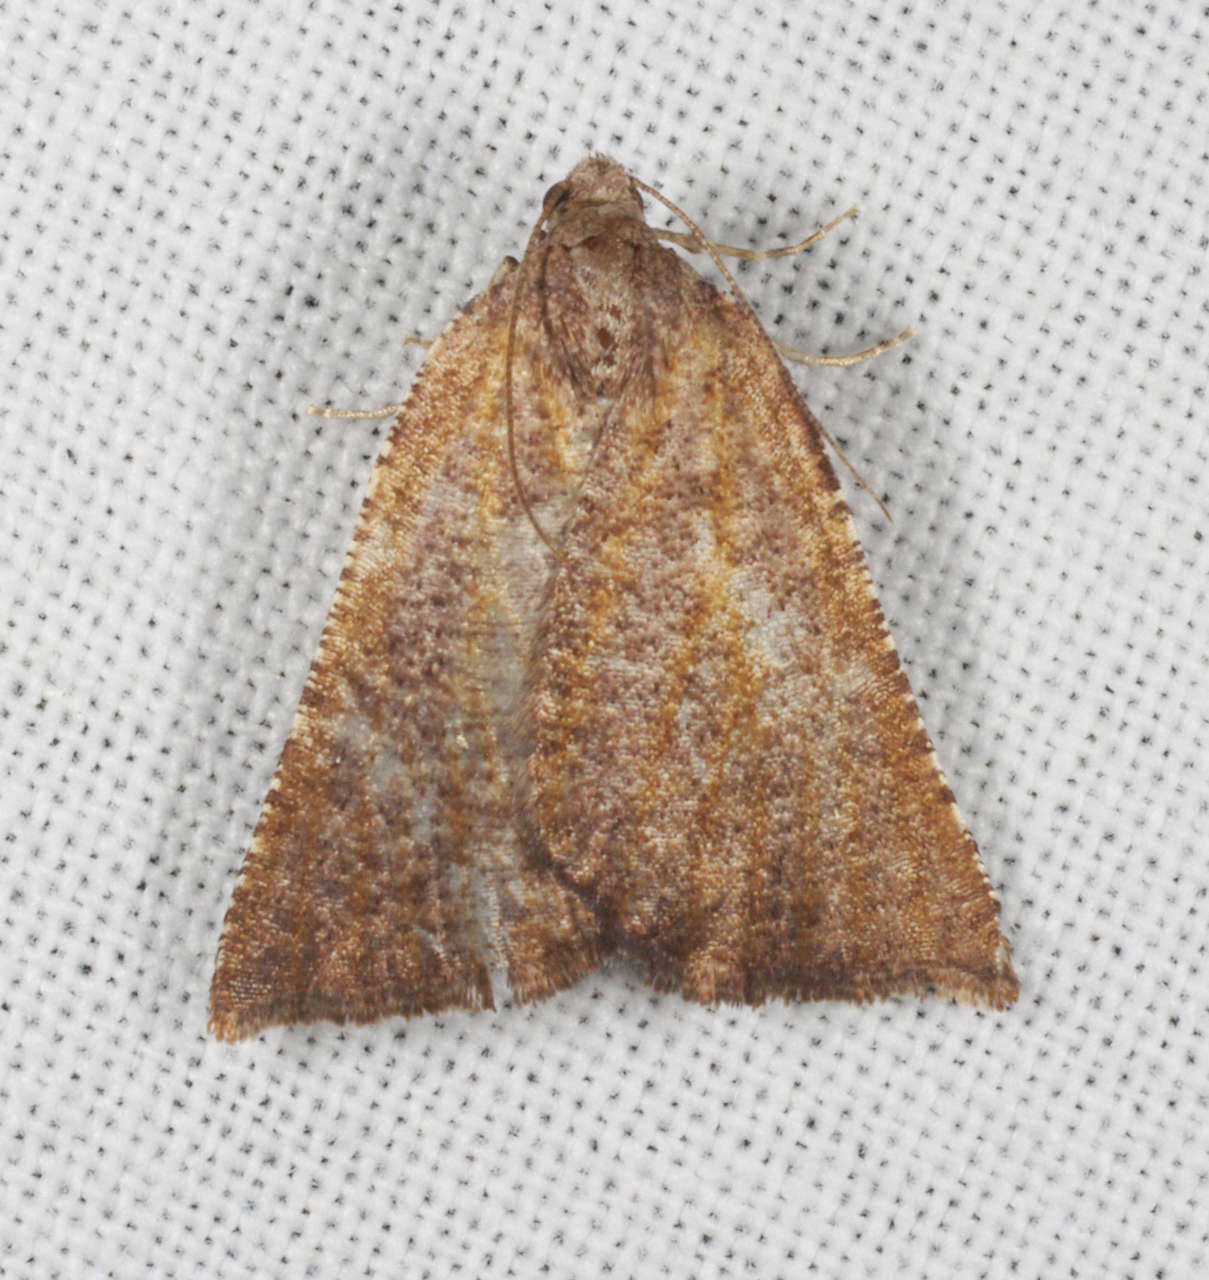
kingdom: Animalia
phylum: Arthropoda
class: Insecta
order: Lepidoptera
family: Geometridae
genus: Amelora
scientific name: Amelora arotraea
